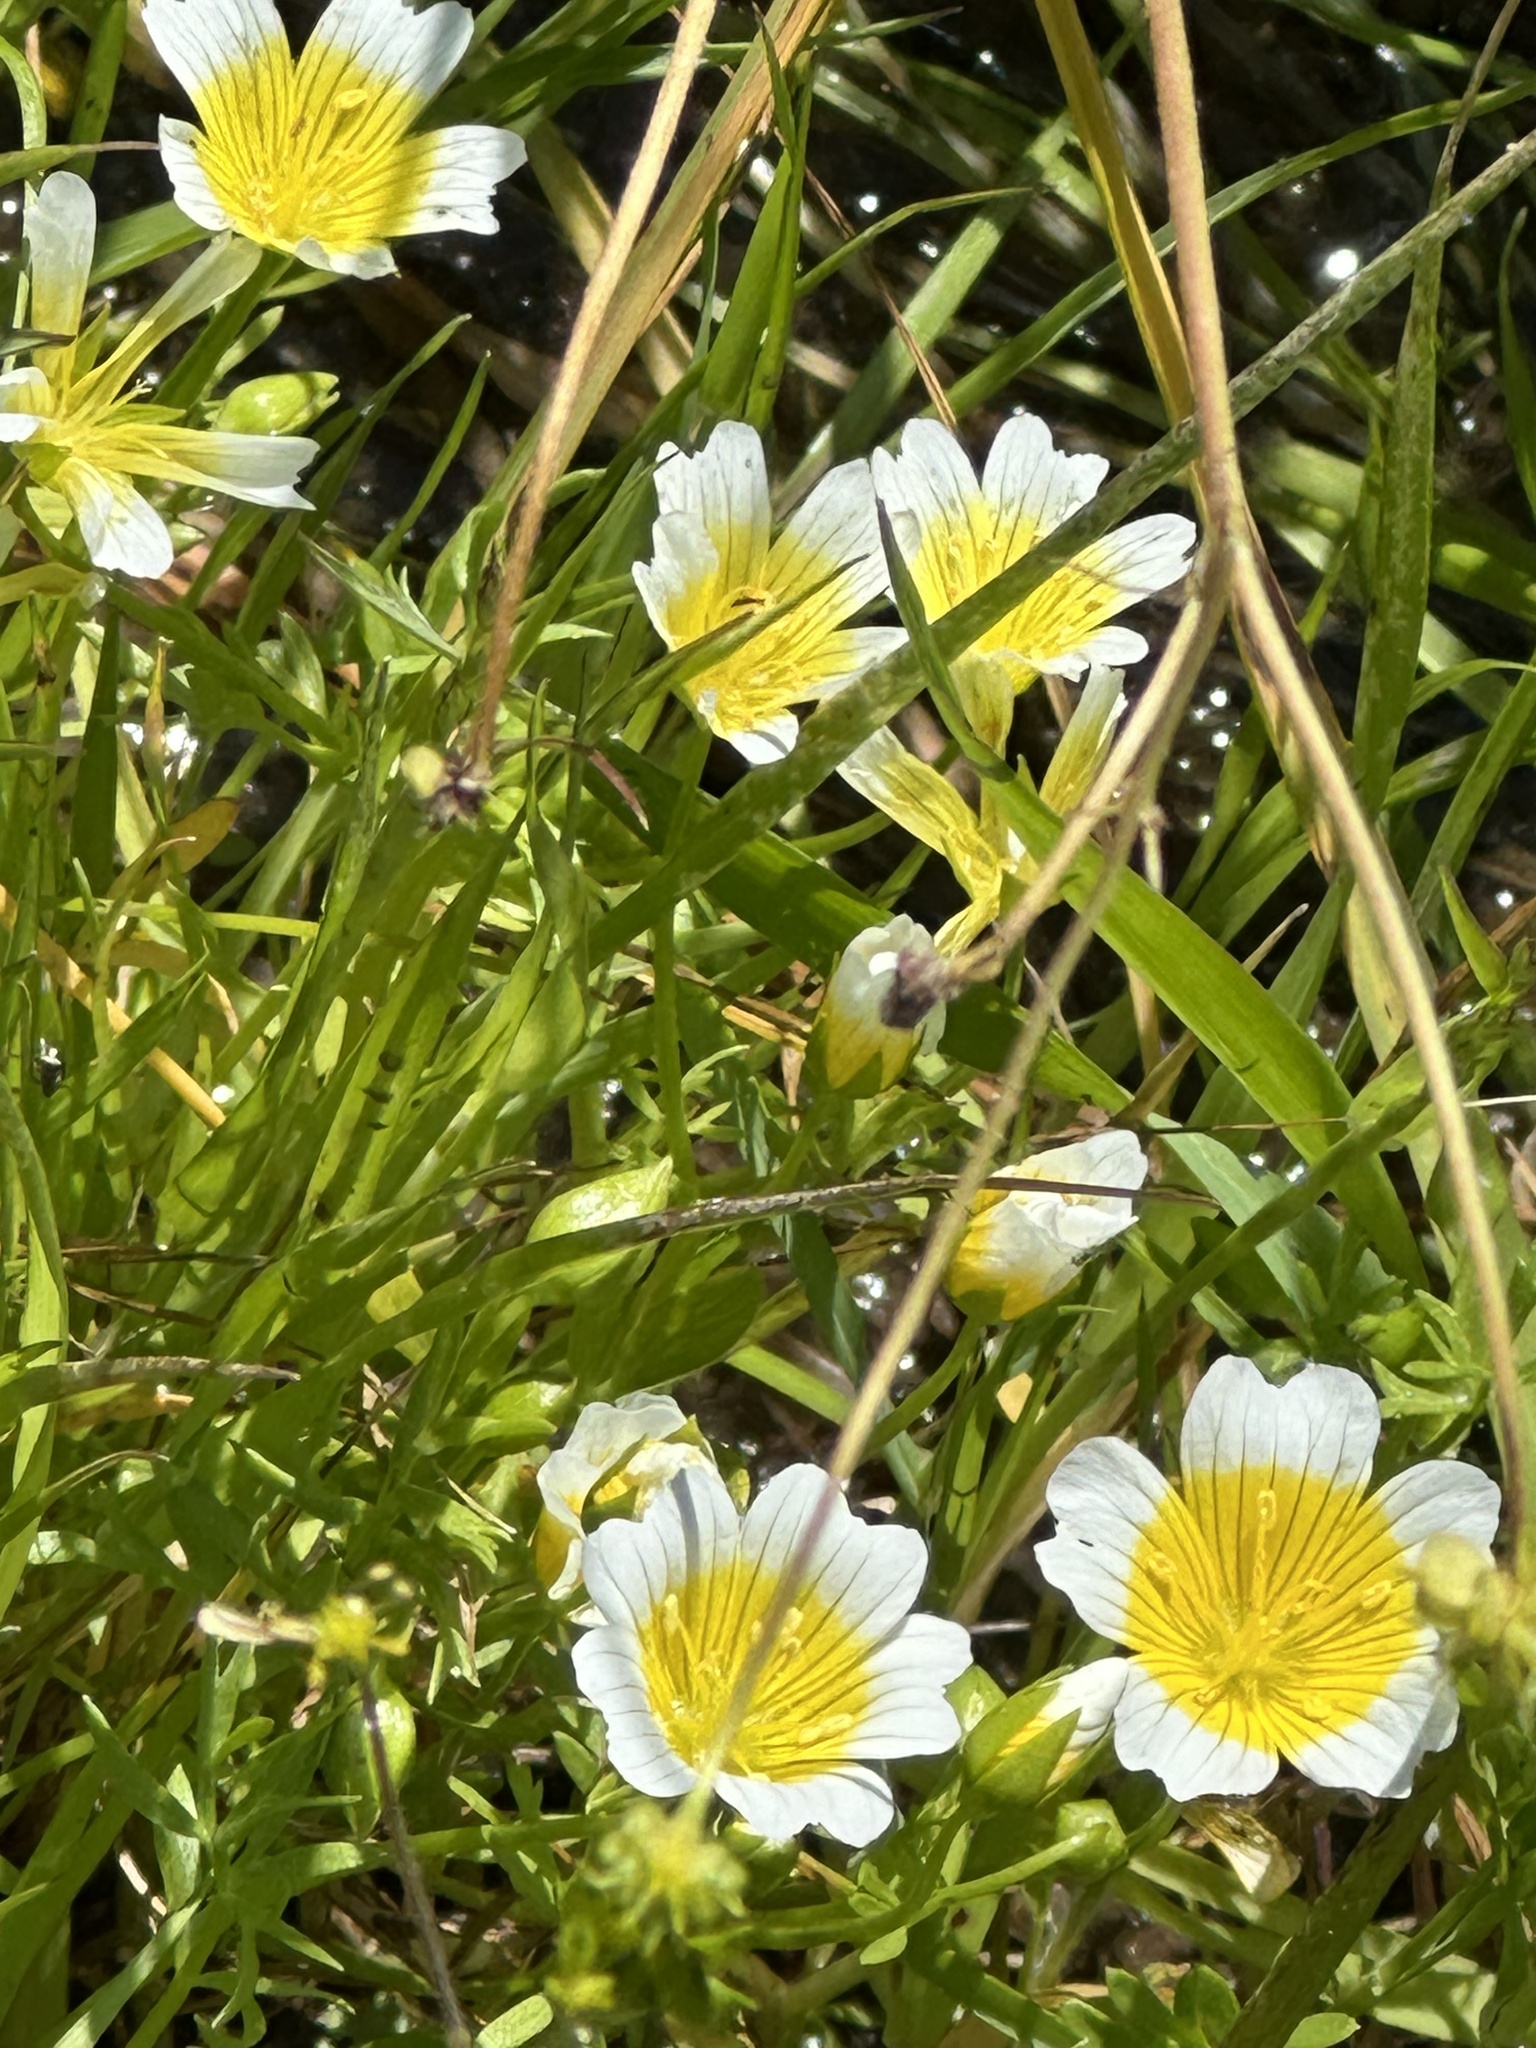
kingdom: Plantae
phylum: Tracheophyta
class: Magnoliopsida
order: Brassicales
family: Limnanthaceae
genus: Limnanthes
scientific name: Limnanthes douglasii
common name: Meadow-foam
